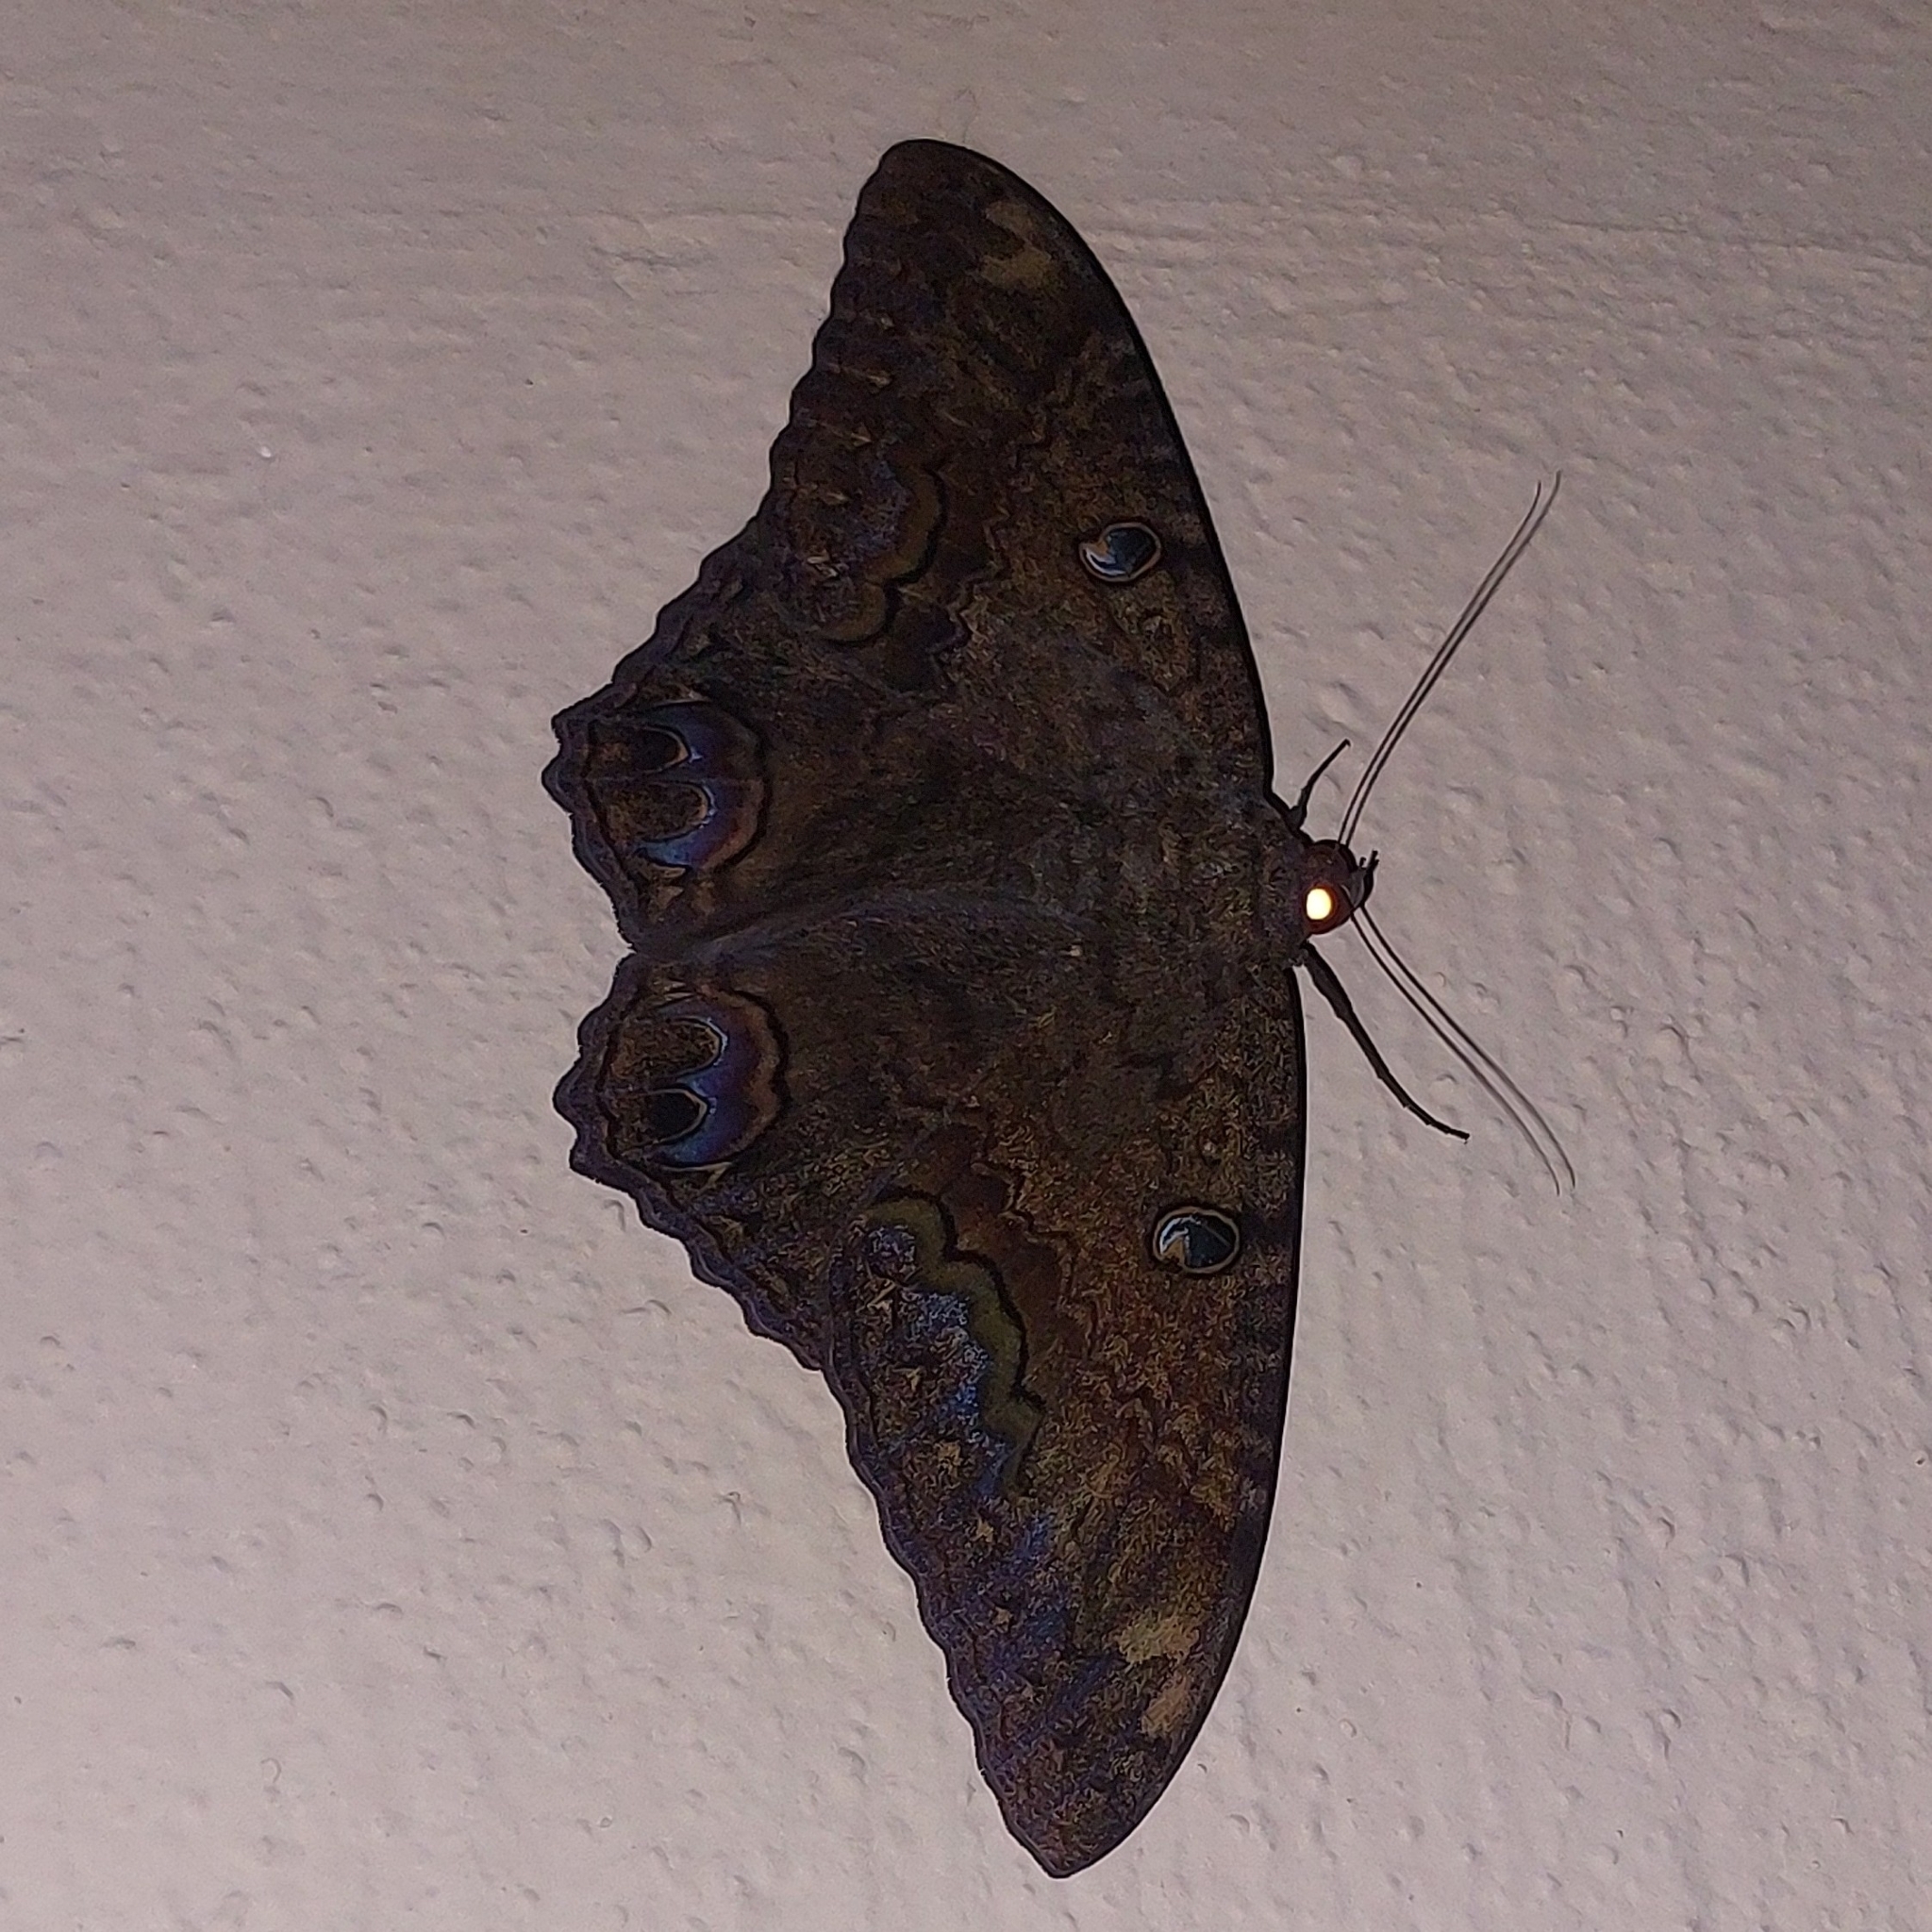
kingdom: Animalia
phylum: Arthropoda
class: Insecta
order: Lepidoptera
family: Erebidae
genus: Ascalapha
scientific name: Ascalapha odorata
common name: Black witch
